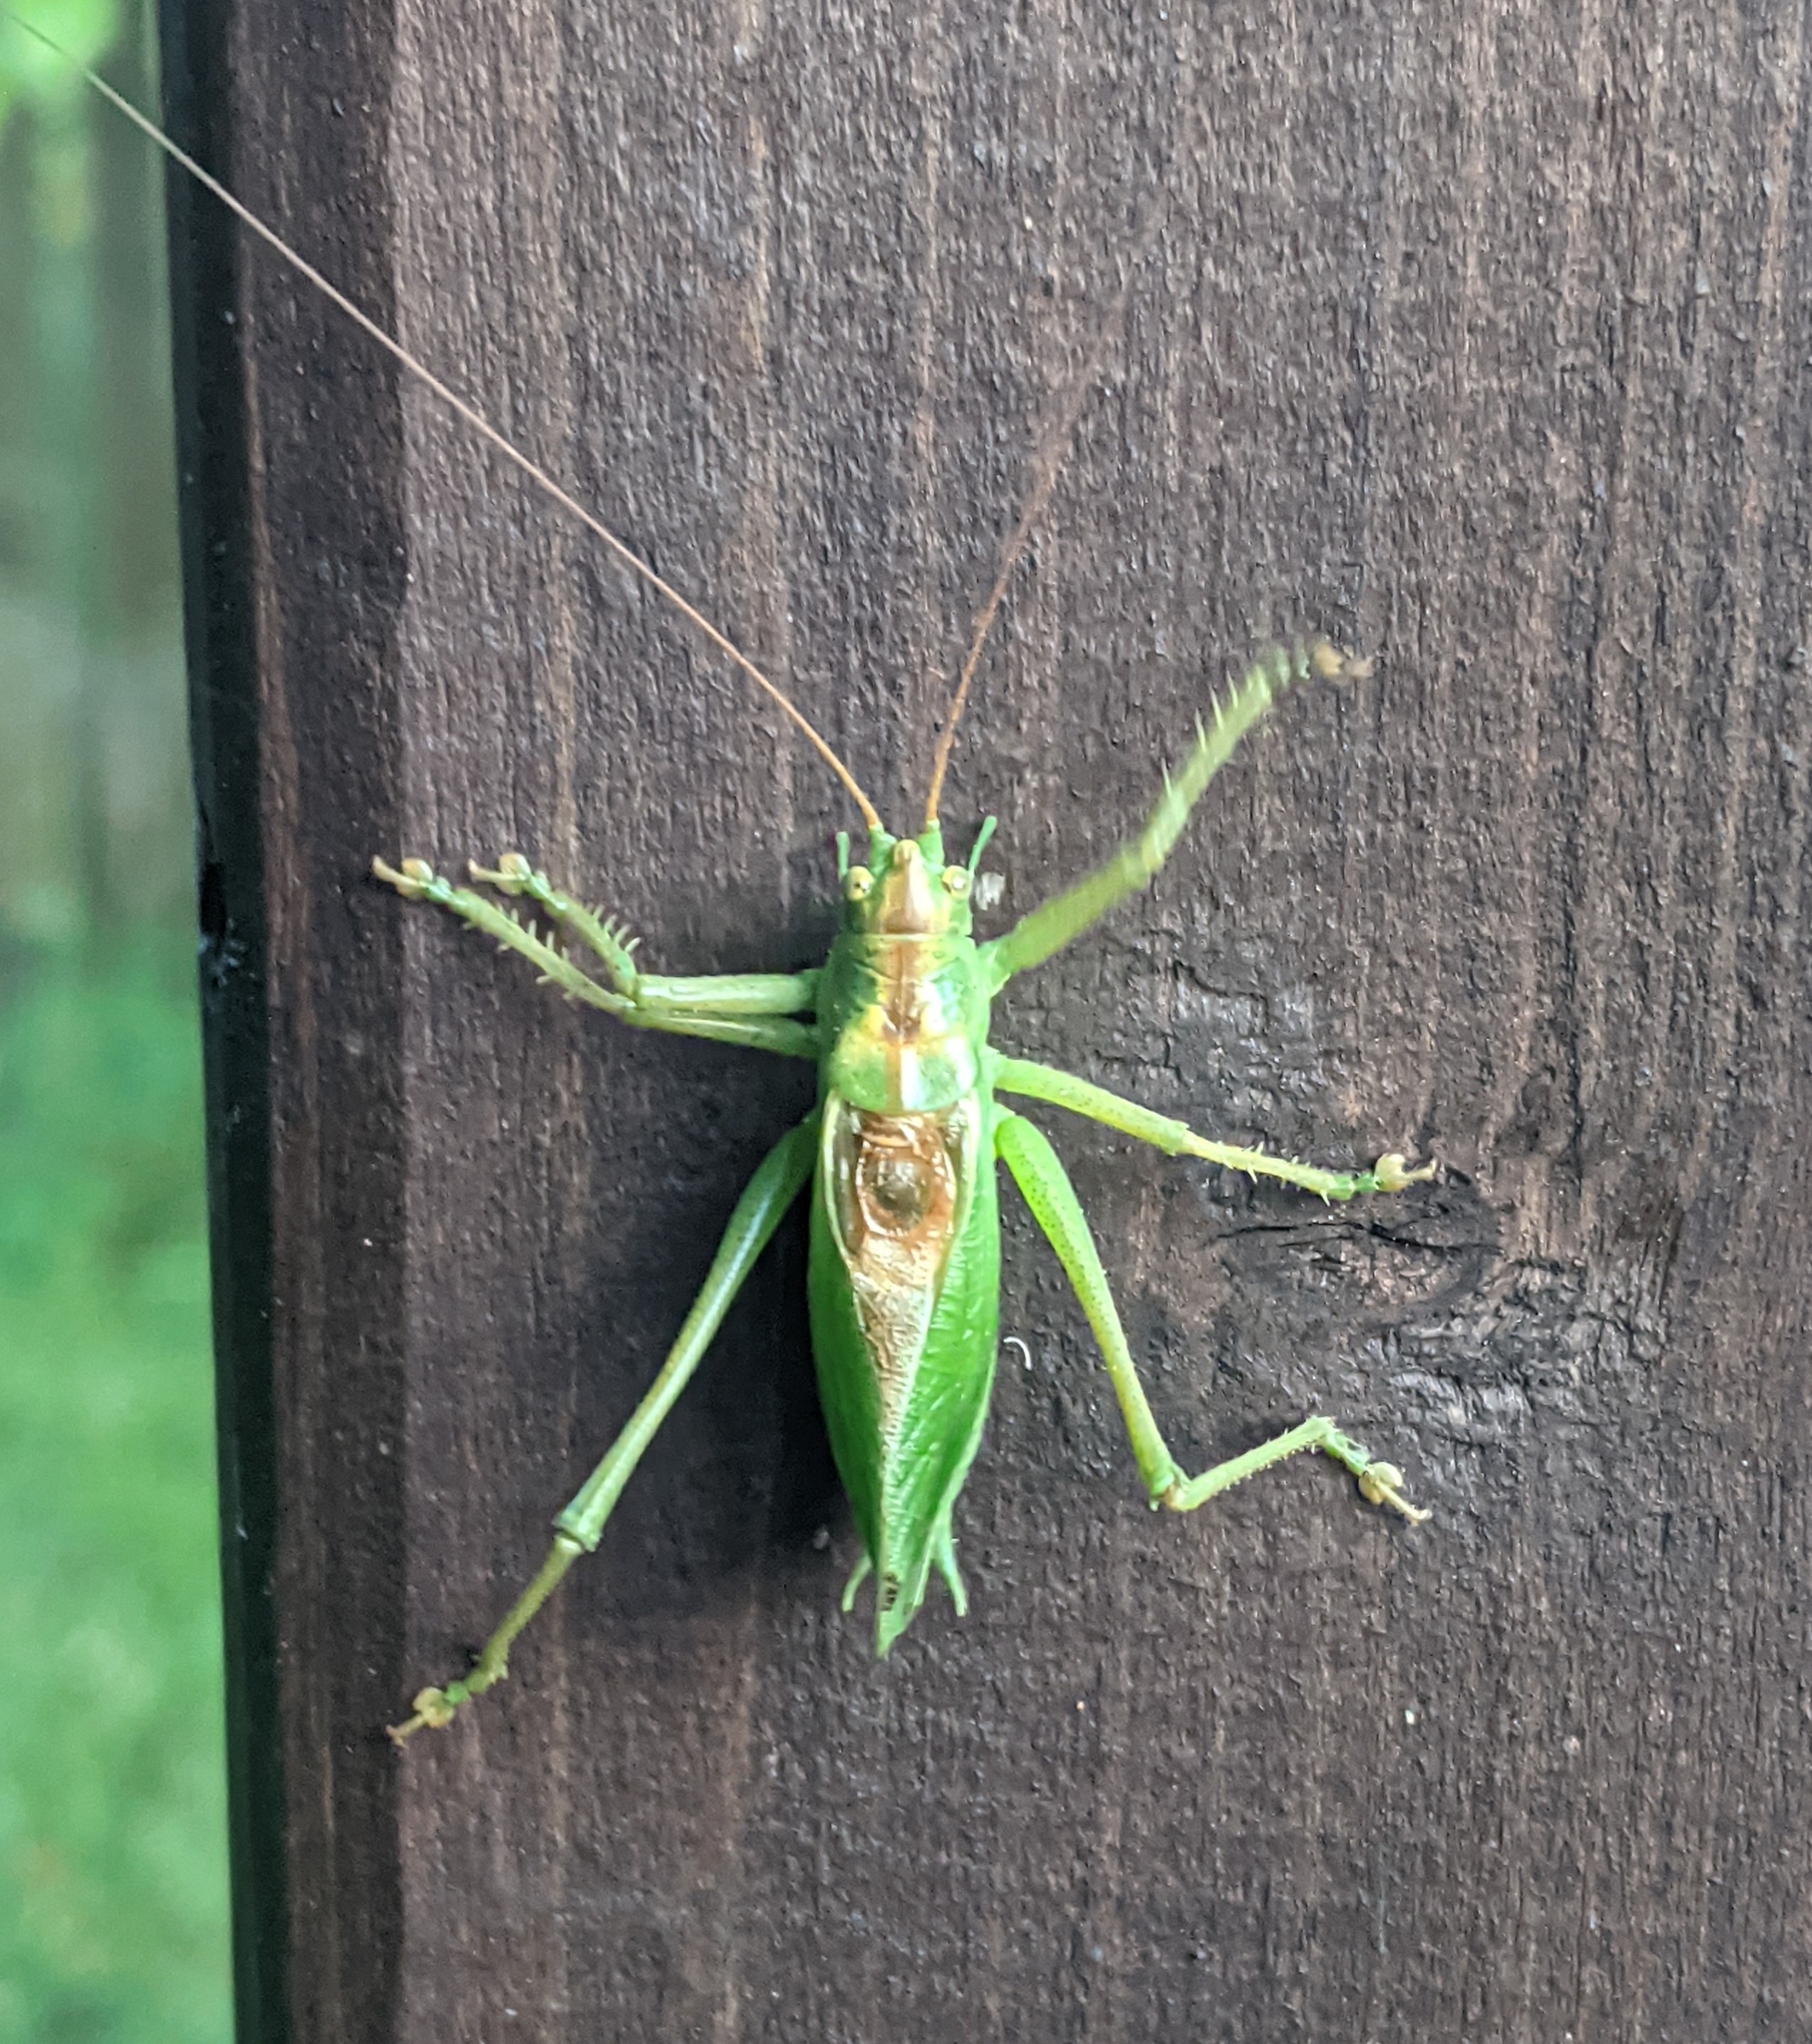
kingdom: Animalia
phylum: Arthropoda
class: Insecta
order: Orthoptera
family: Tettigoniidae
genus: Tettigonia
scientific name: Tettigonia cantans
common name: Upland green bush-cricket
